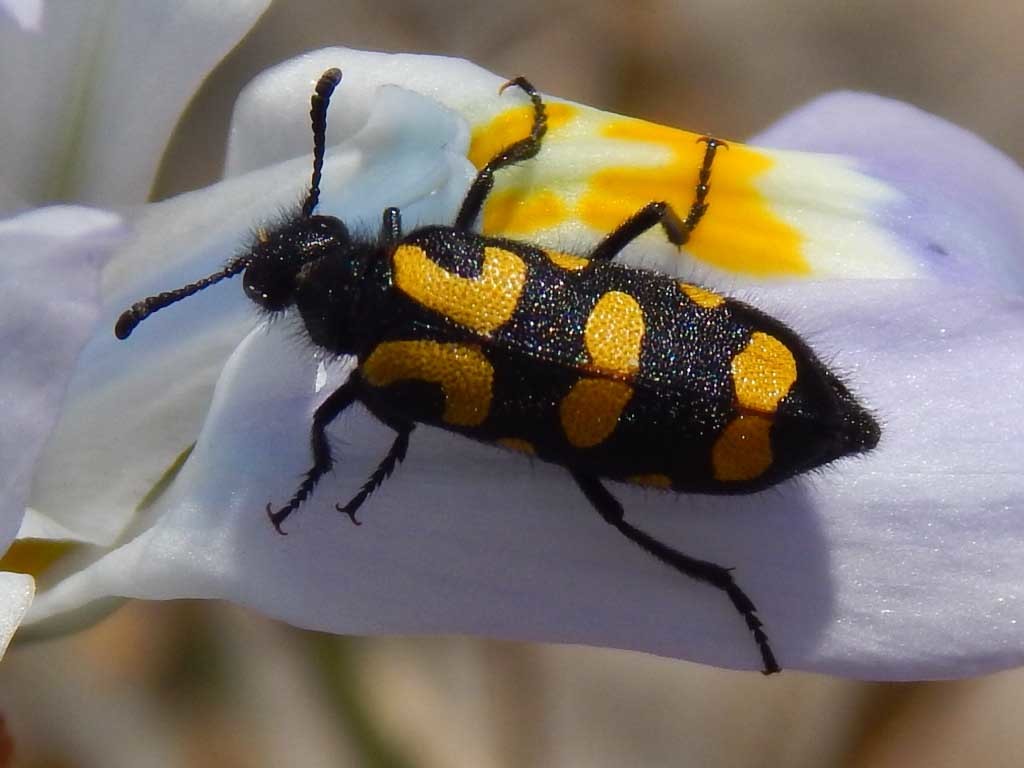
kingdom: Animalia
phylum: Arthropoda
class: Insecta
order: Coleoptera
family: Meloidae
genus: Ceroctis
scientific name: Ceroctis capensis
